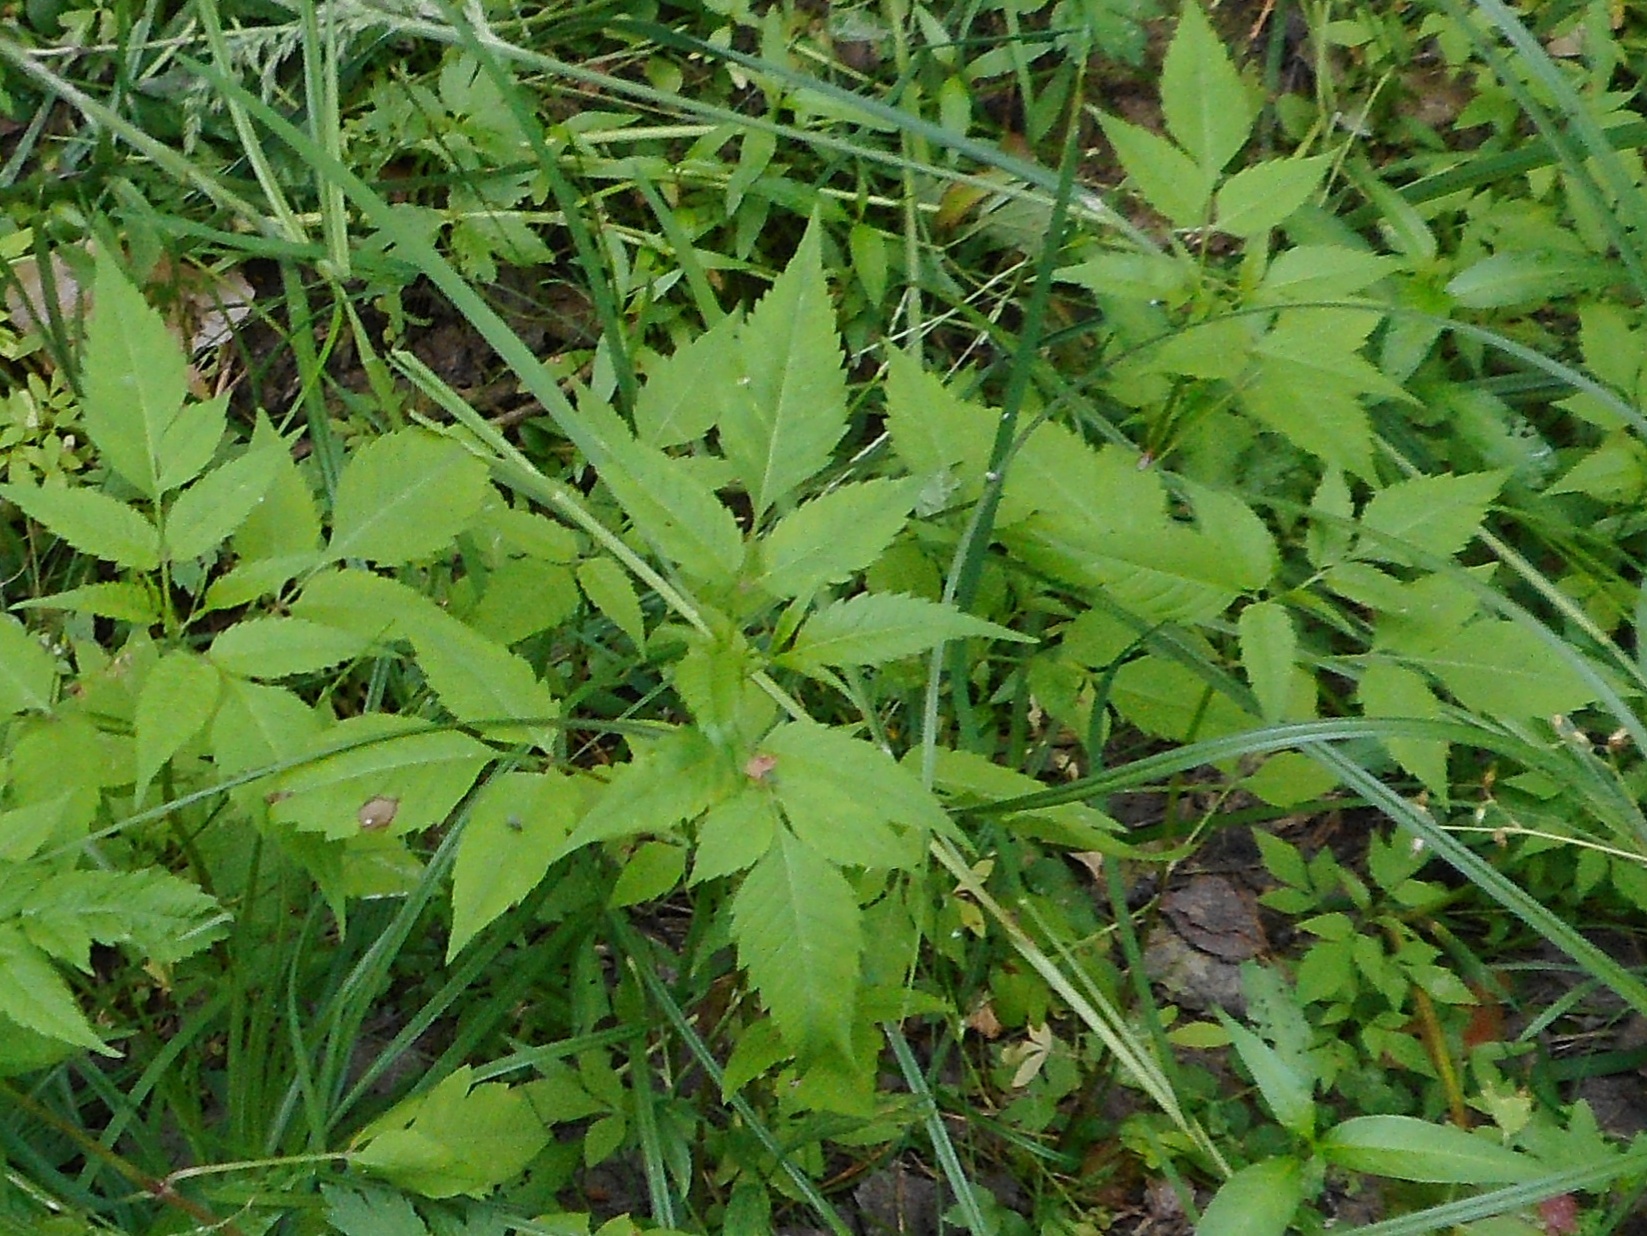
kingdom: Plantae
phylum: Tracheophyta
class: Magnoliopsida
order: Asterales
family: Asteraceae
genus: Bidens
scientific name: Bidens frondosa
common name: Beggarticks
